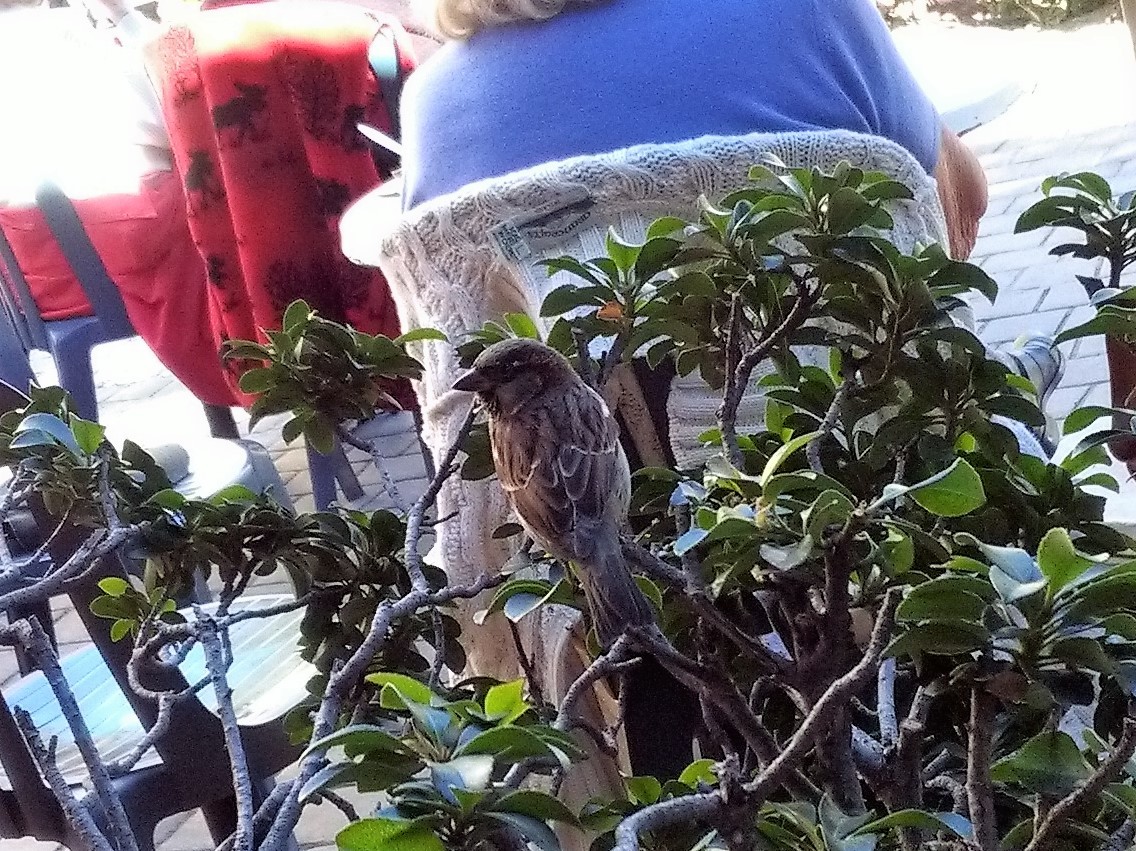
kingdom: Animalia
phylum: Chordata
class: Aves
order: Passeriformes
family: Passeridae
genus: Passer
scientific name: Passer domesticus
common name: House sparrow
